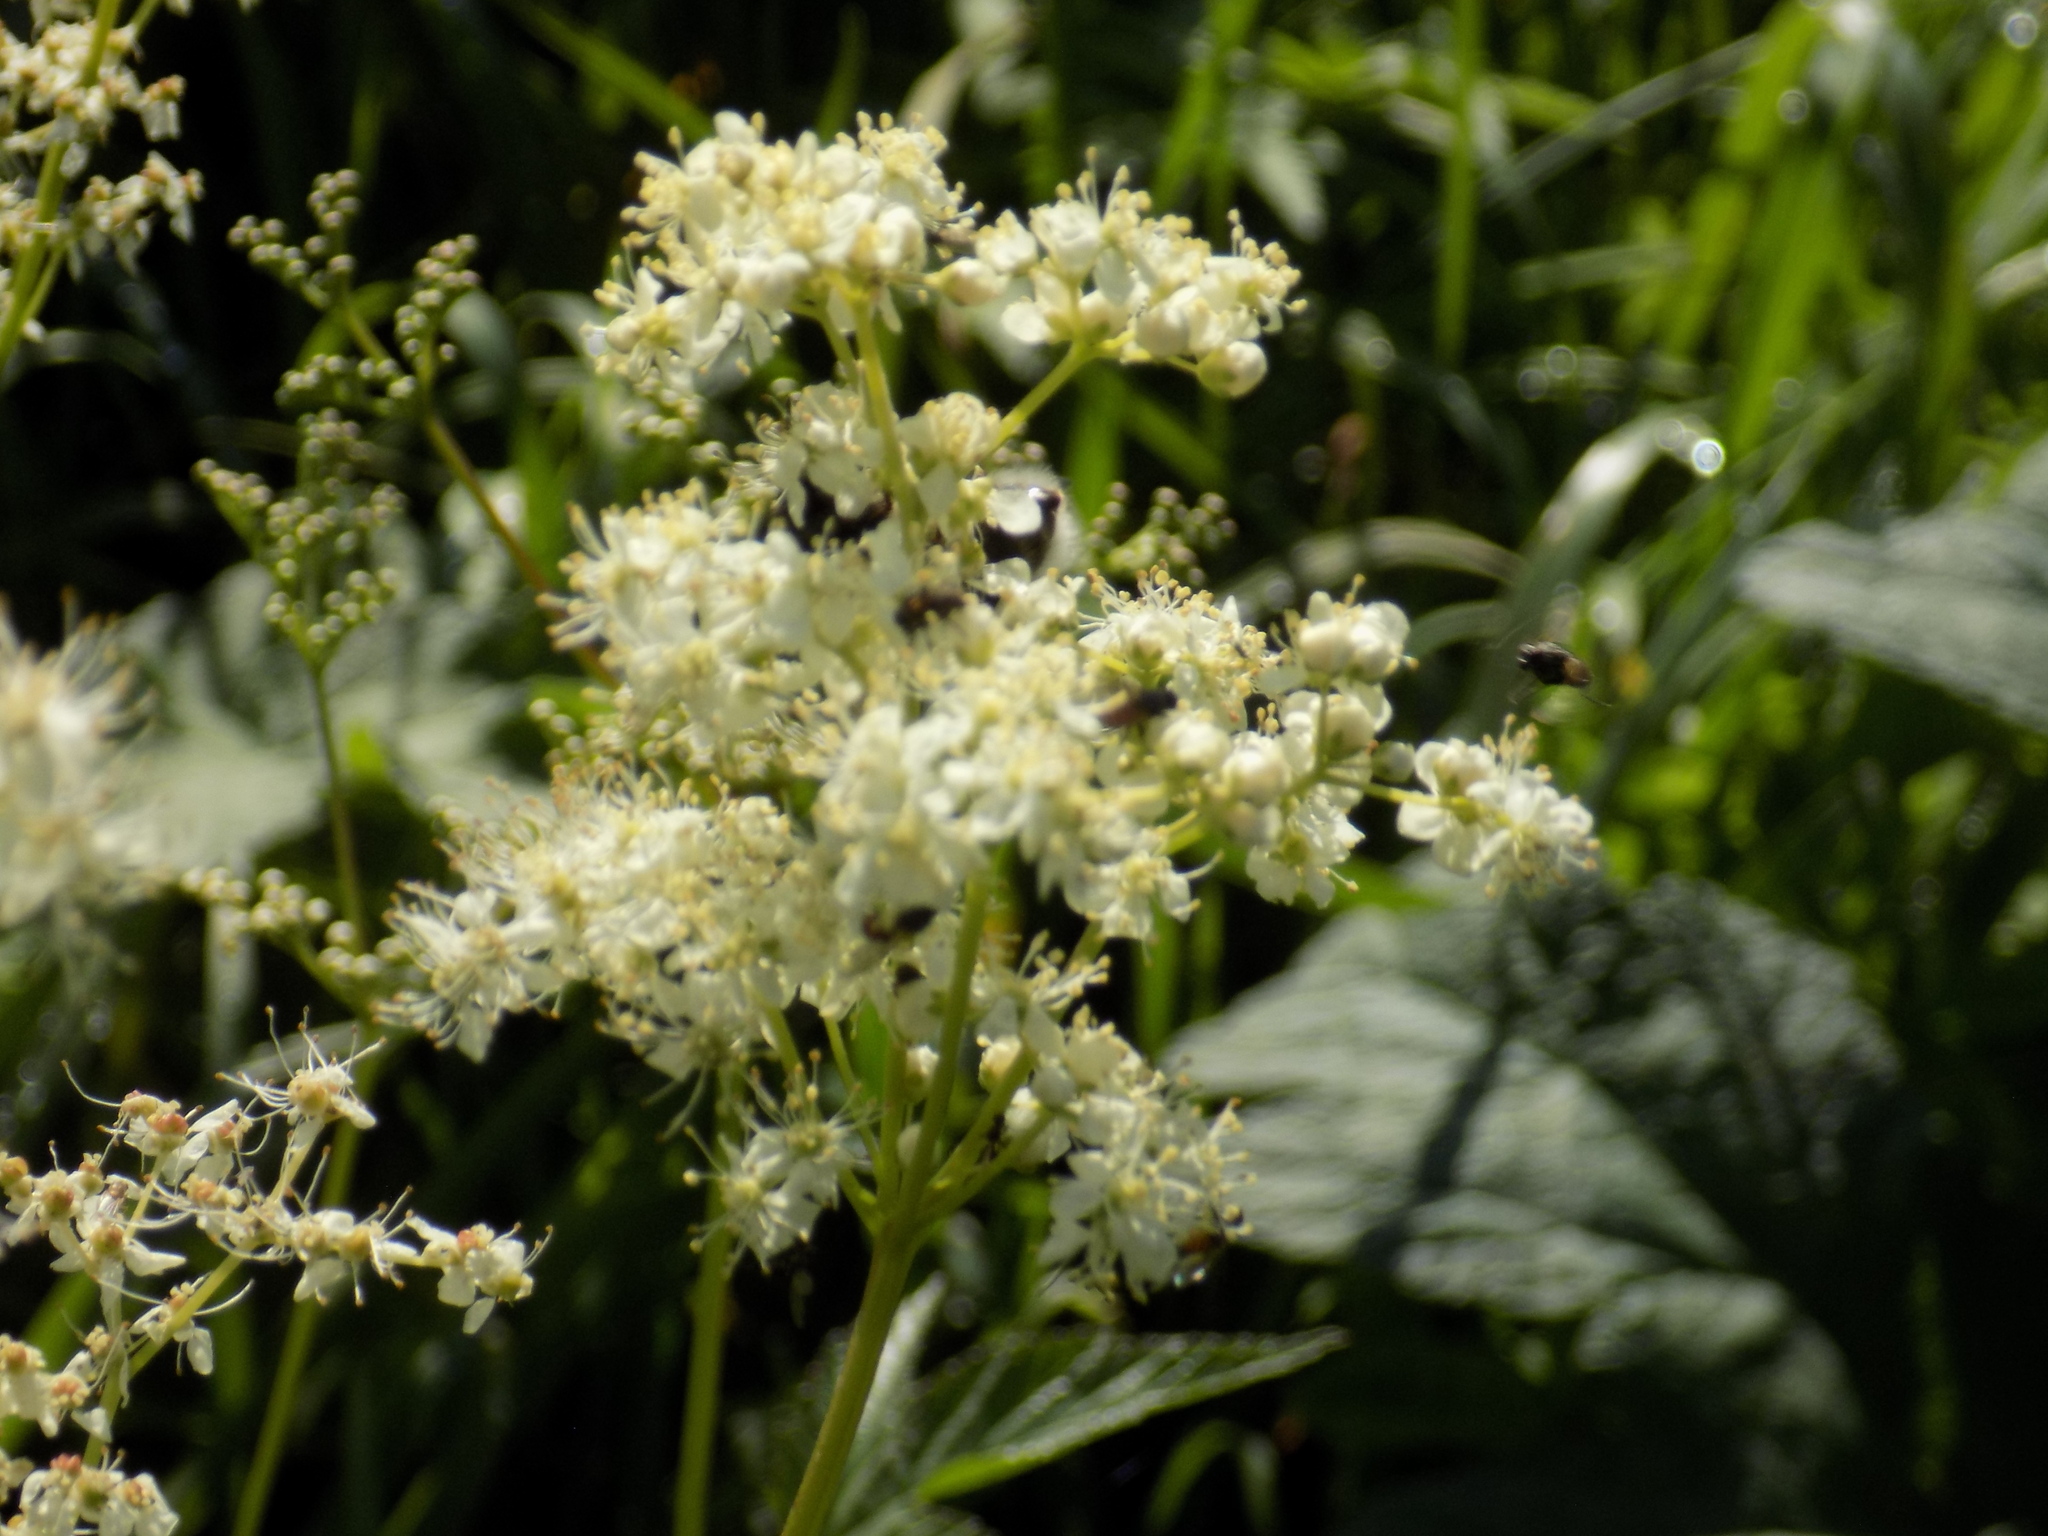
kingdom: Plantae
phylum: Tracheophyta
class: Magnoliopsida
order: Rosales
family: Rosaceae
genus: Filipendula
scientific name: Filipendula ulmaria
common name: Meadowsweet
